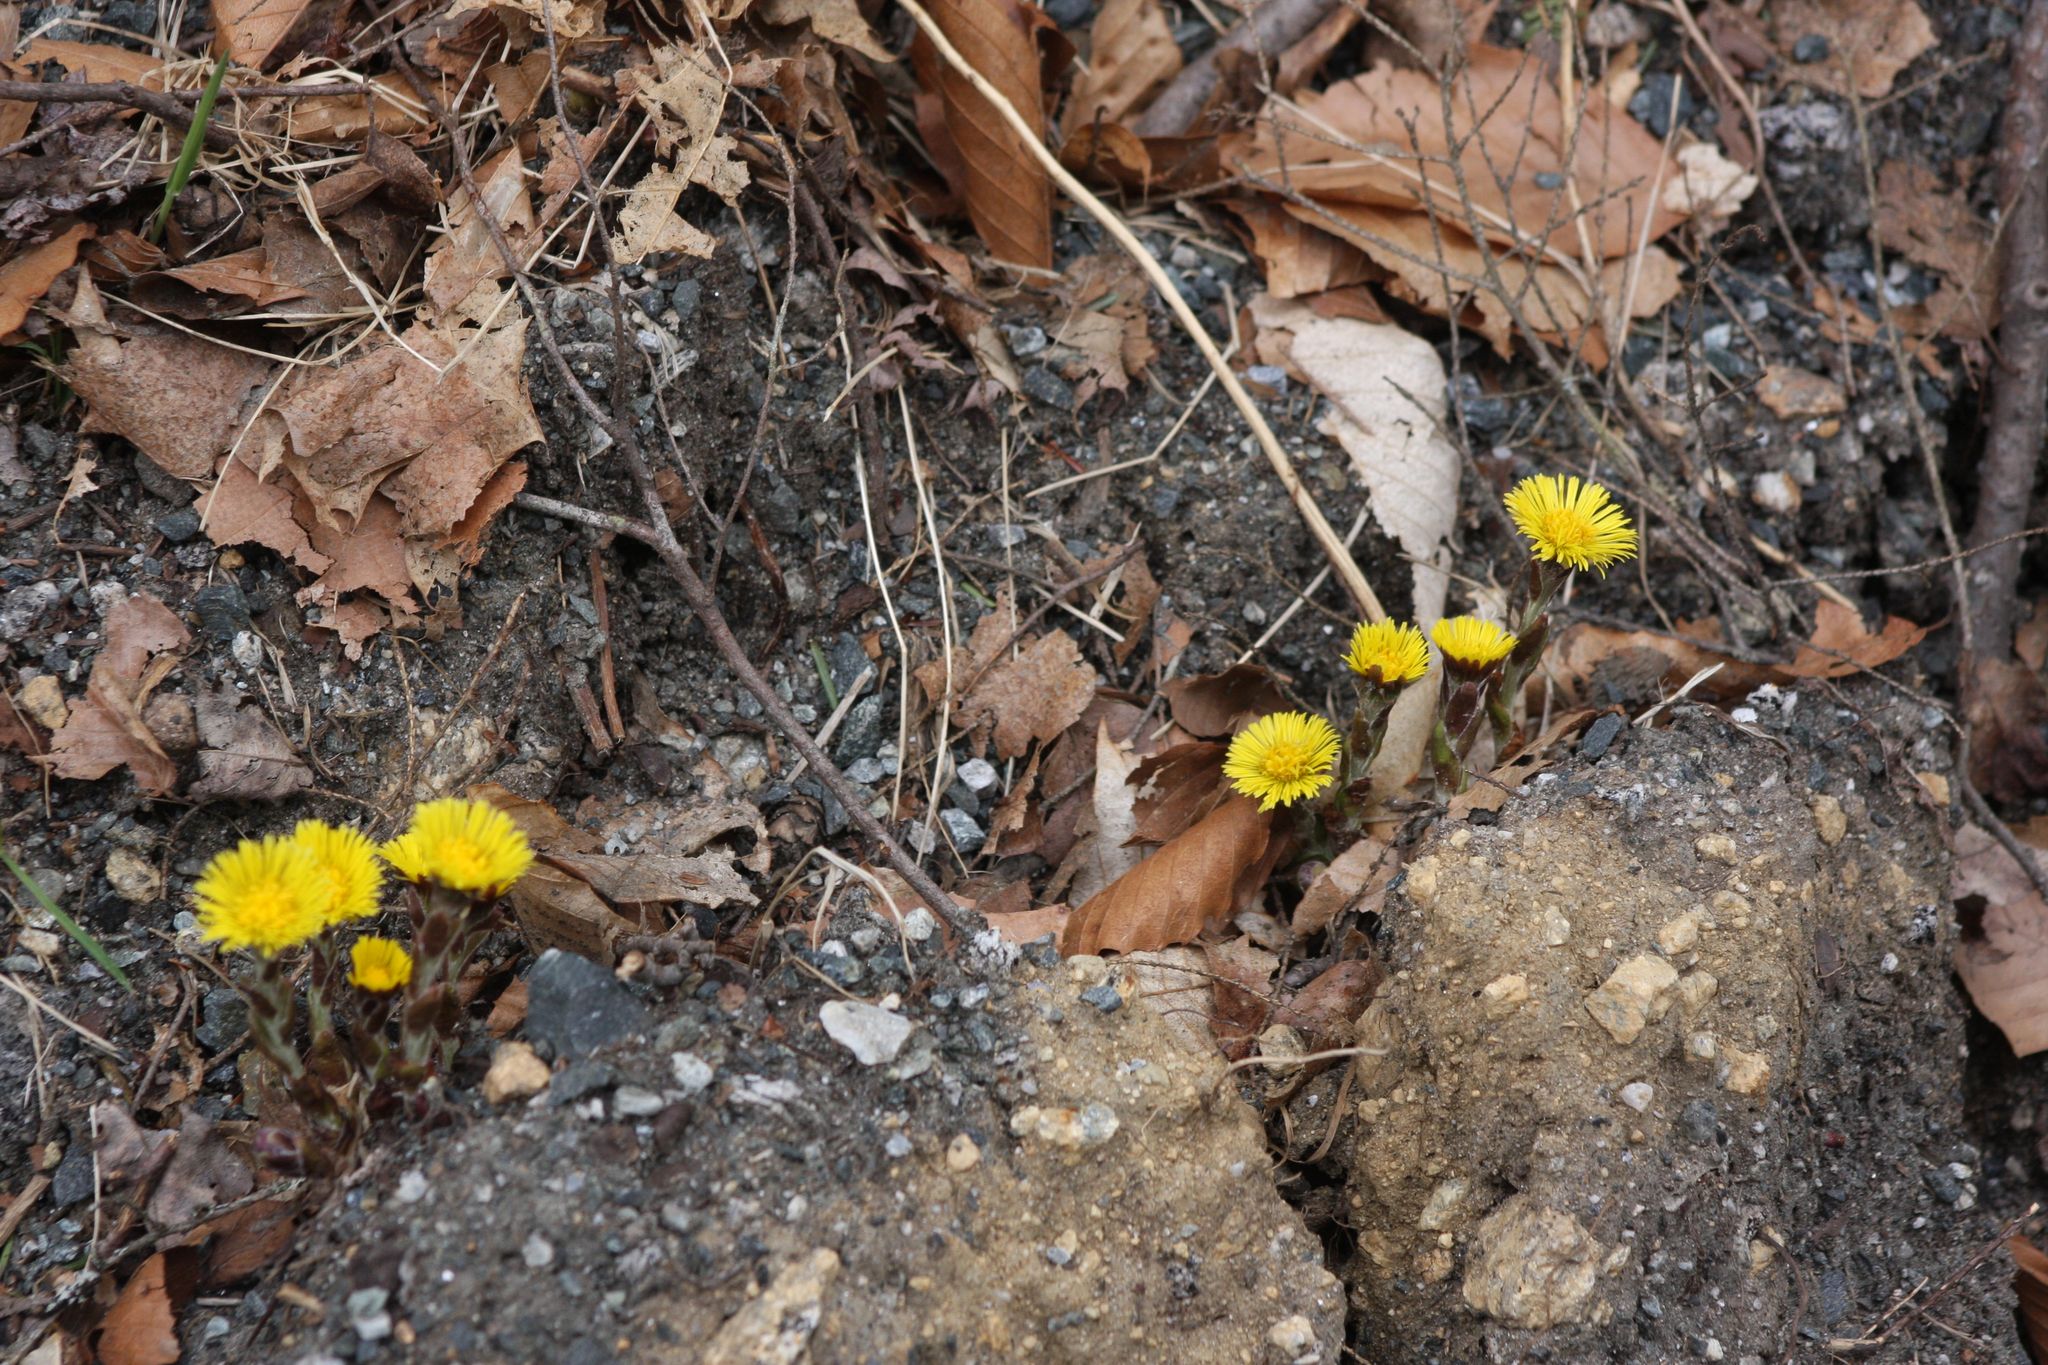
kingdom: Plantae
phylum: Tracheophyta
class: Magnoliopsida
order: Asterales
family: Asteraceae
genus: Tussilago
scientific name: Tussilago farfara
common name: Coltsfoot
